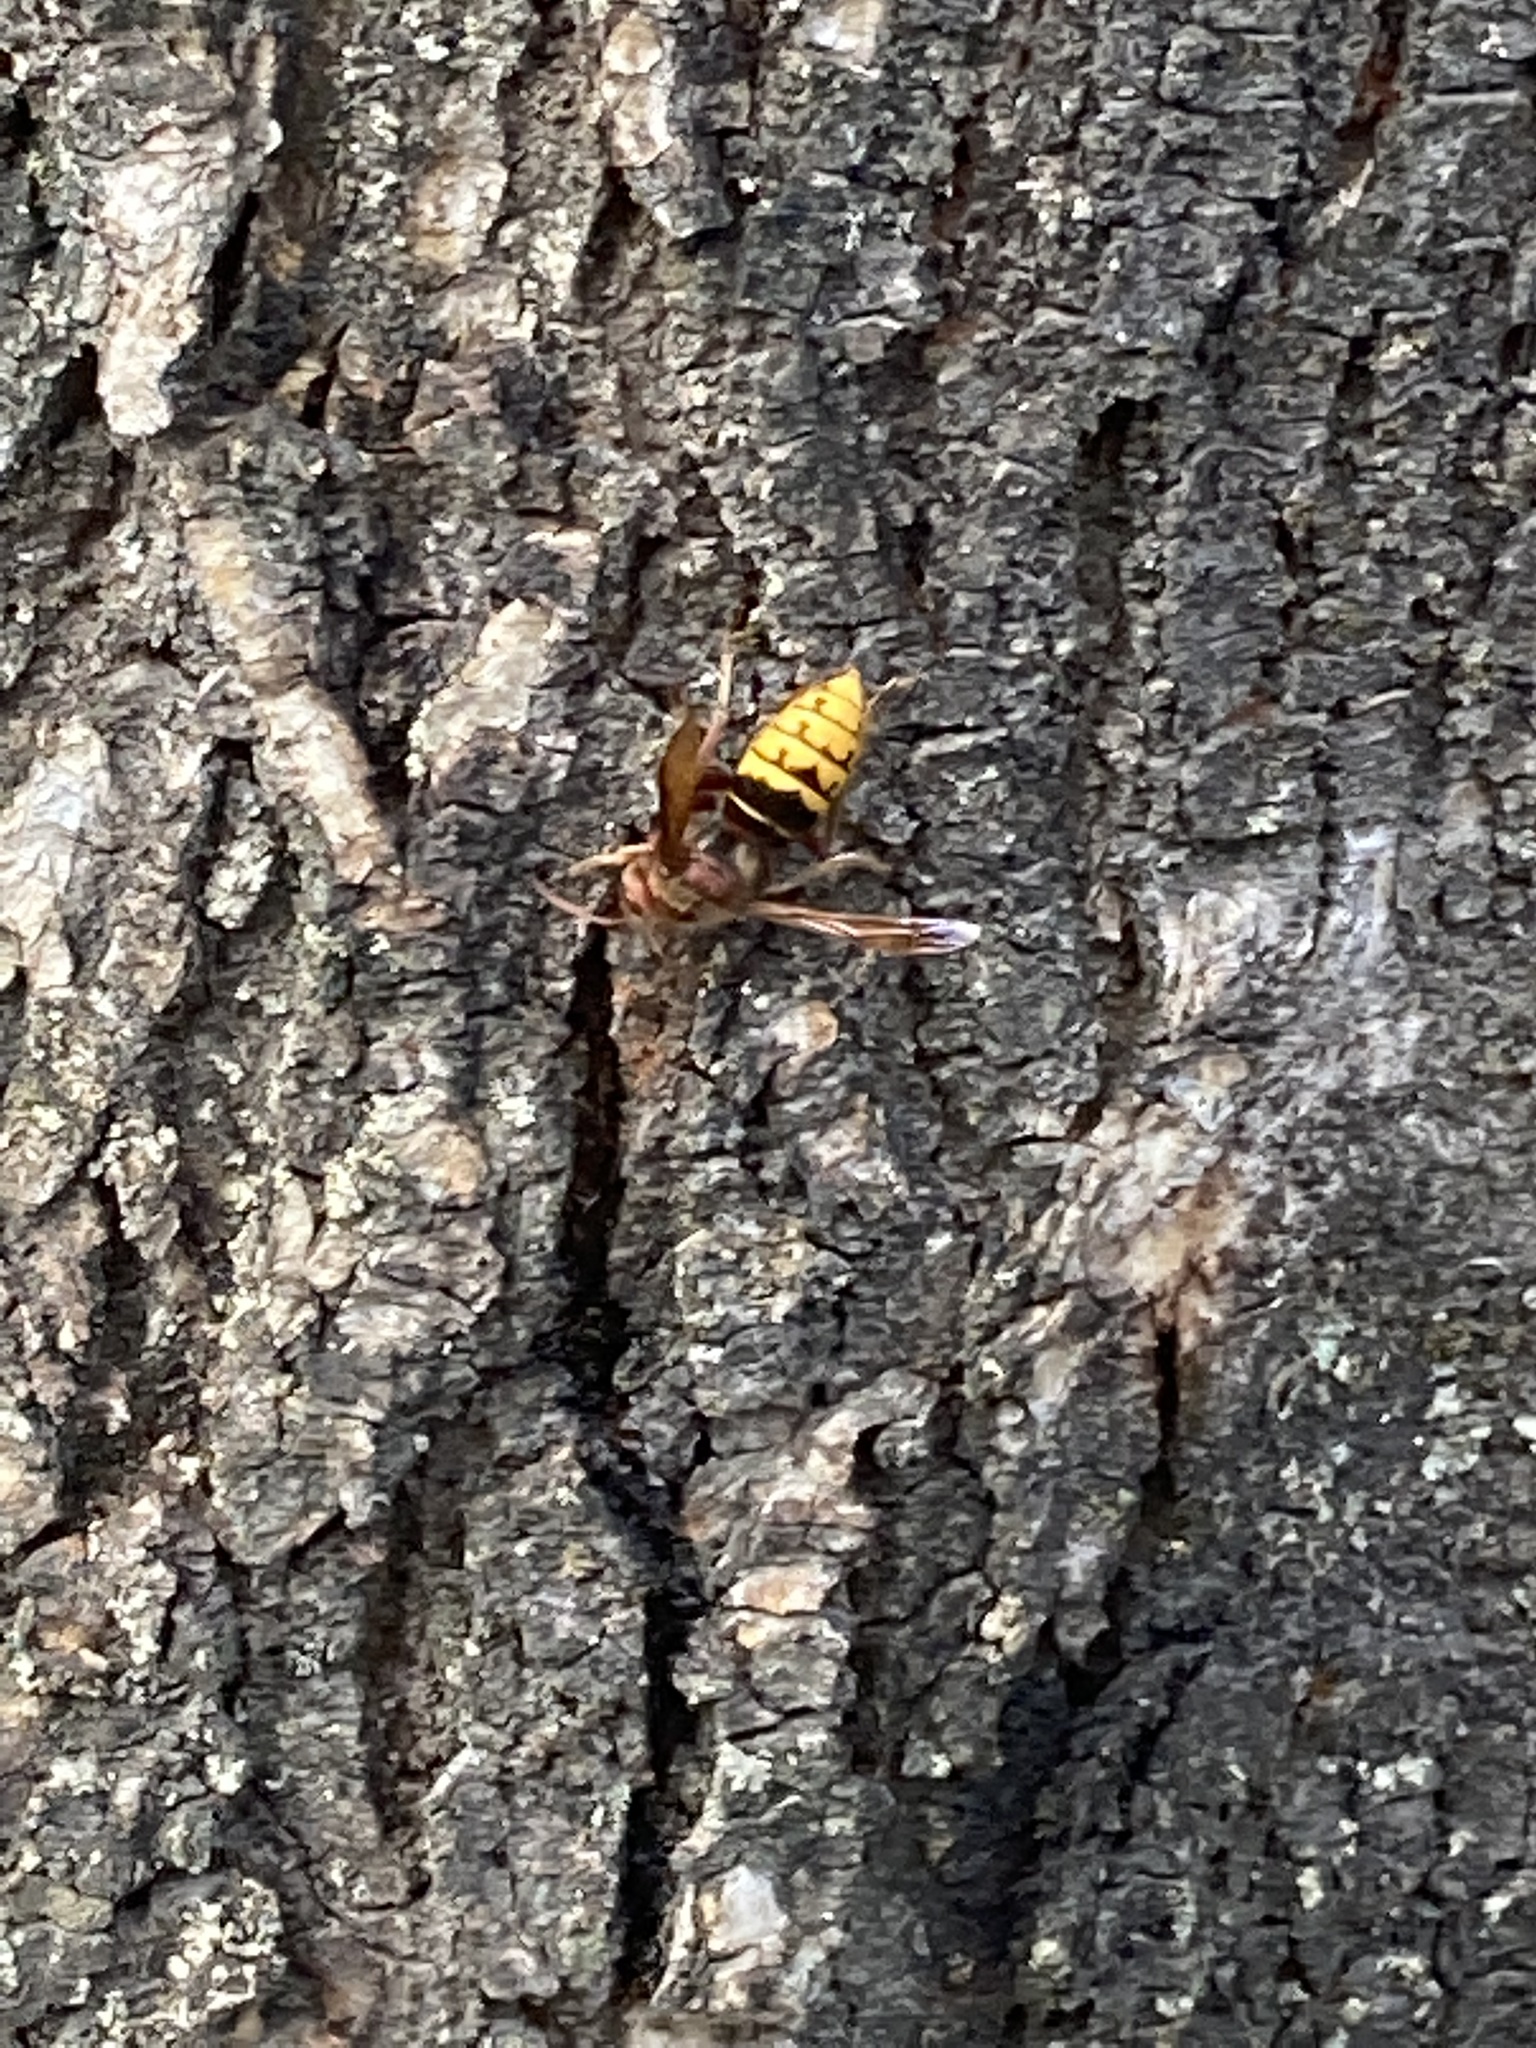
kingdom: Animalia
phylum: Arthropoda
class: Insecta
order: Hymenoptera
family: Vespidae
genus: Vespa
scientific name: Vespa crabro
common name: Hornet
